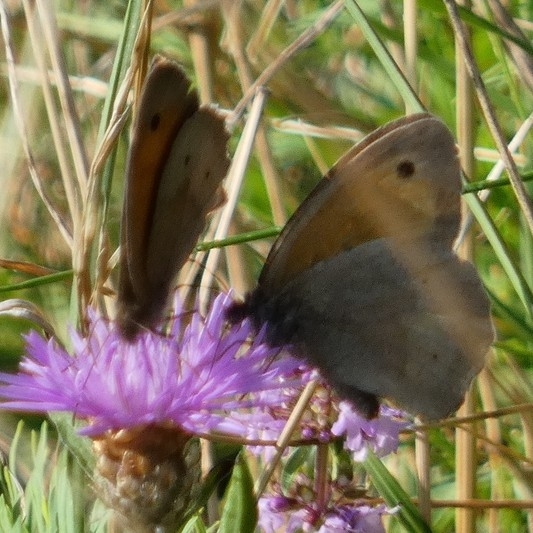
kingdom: Animalia
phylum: Arthropoda
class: Insecta
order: Lepidoptera
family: Nymphalidae
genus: Maniola
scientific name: Maniola jurtina
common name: Meadow brown
